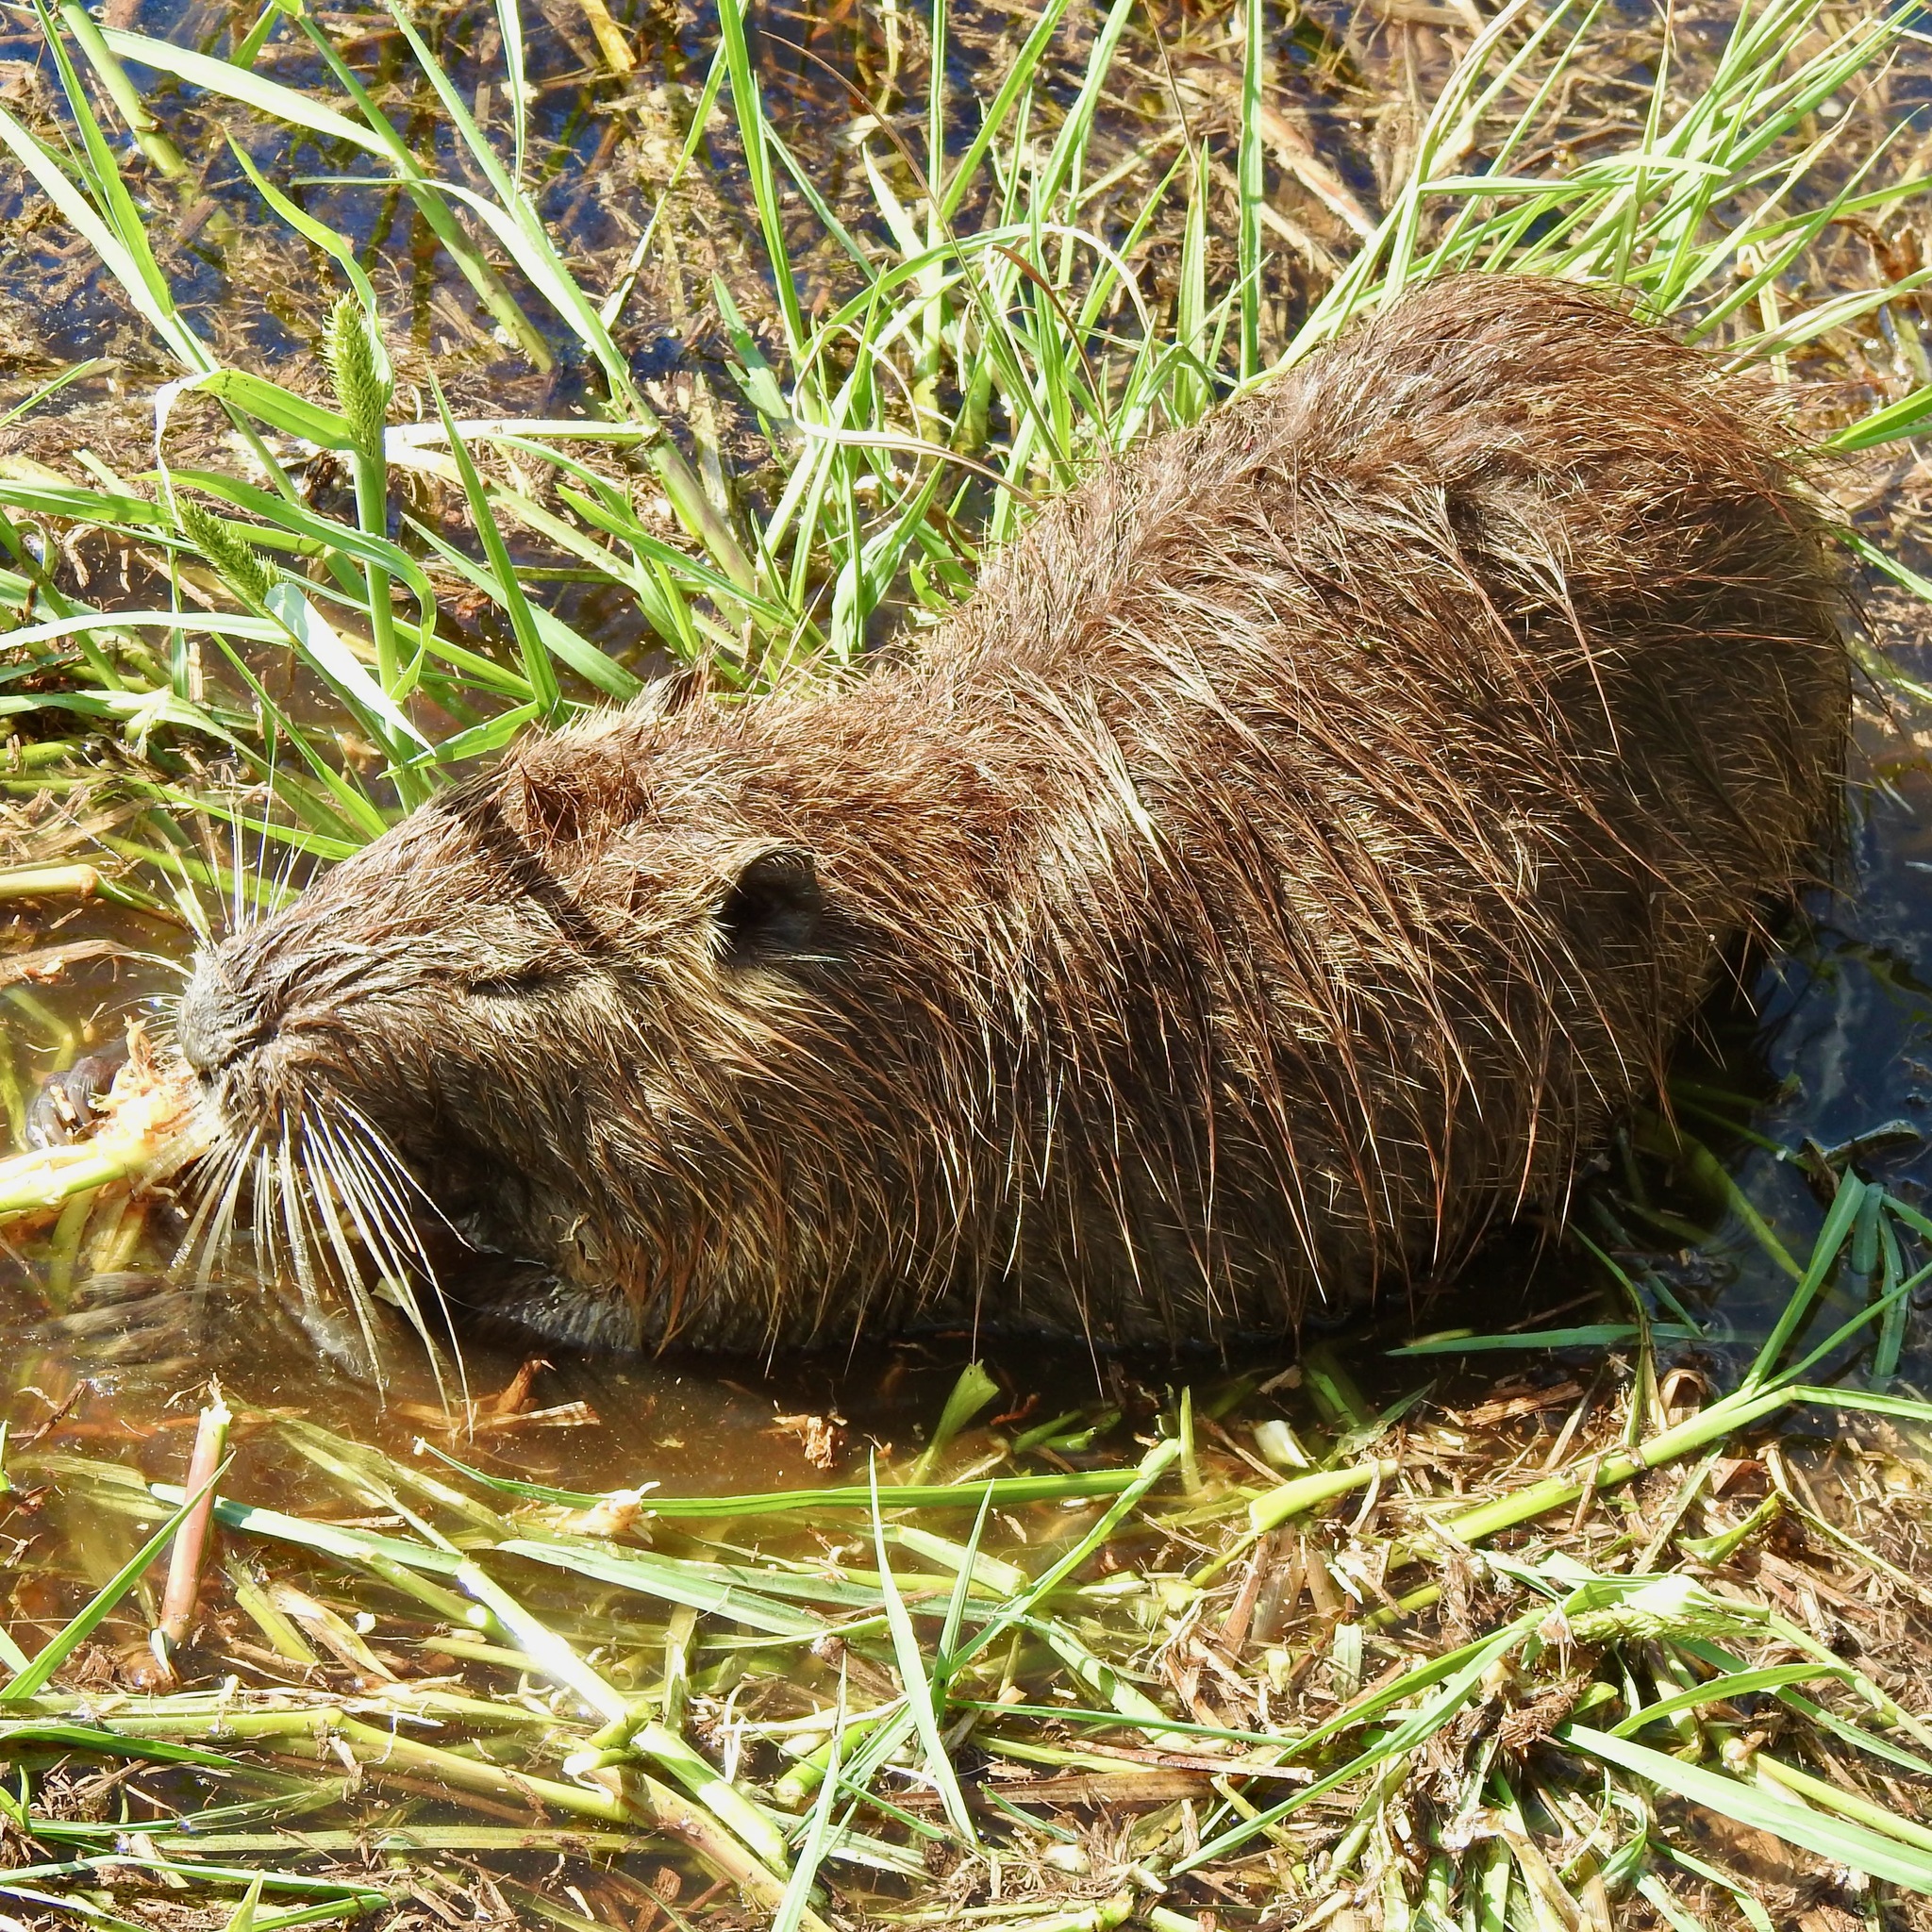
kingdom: Animalia
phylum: Chordata
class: Mammalia
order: Rodentia
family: Myocastoridae
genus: Myocastor
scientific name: Myocastor coypus
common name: Coypu
